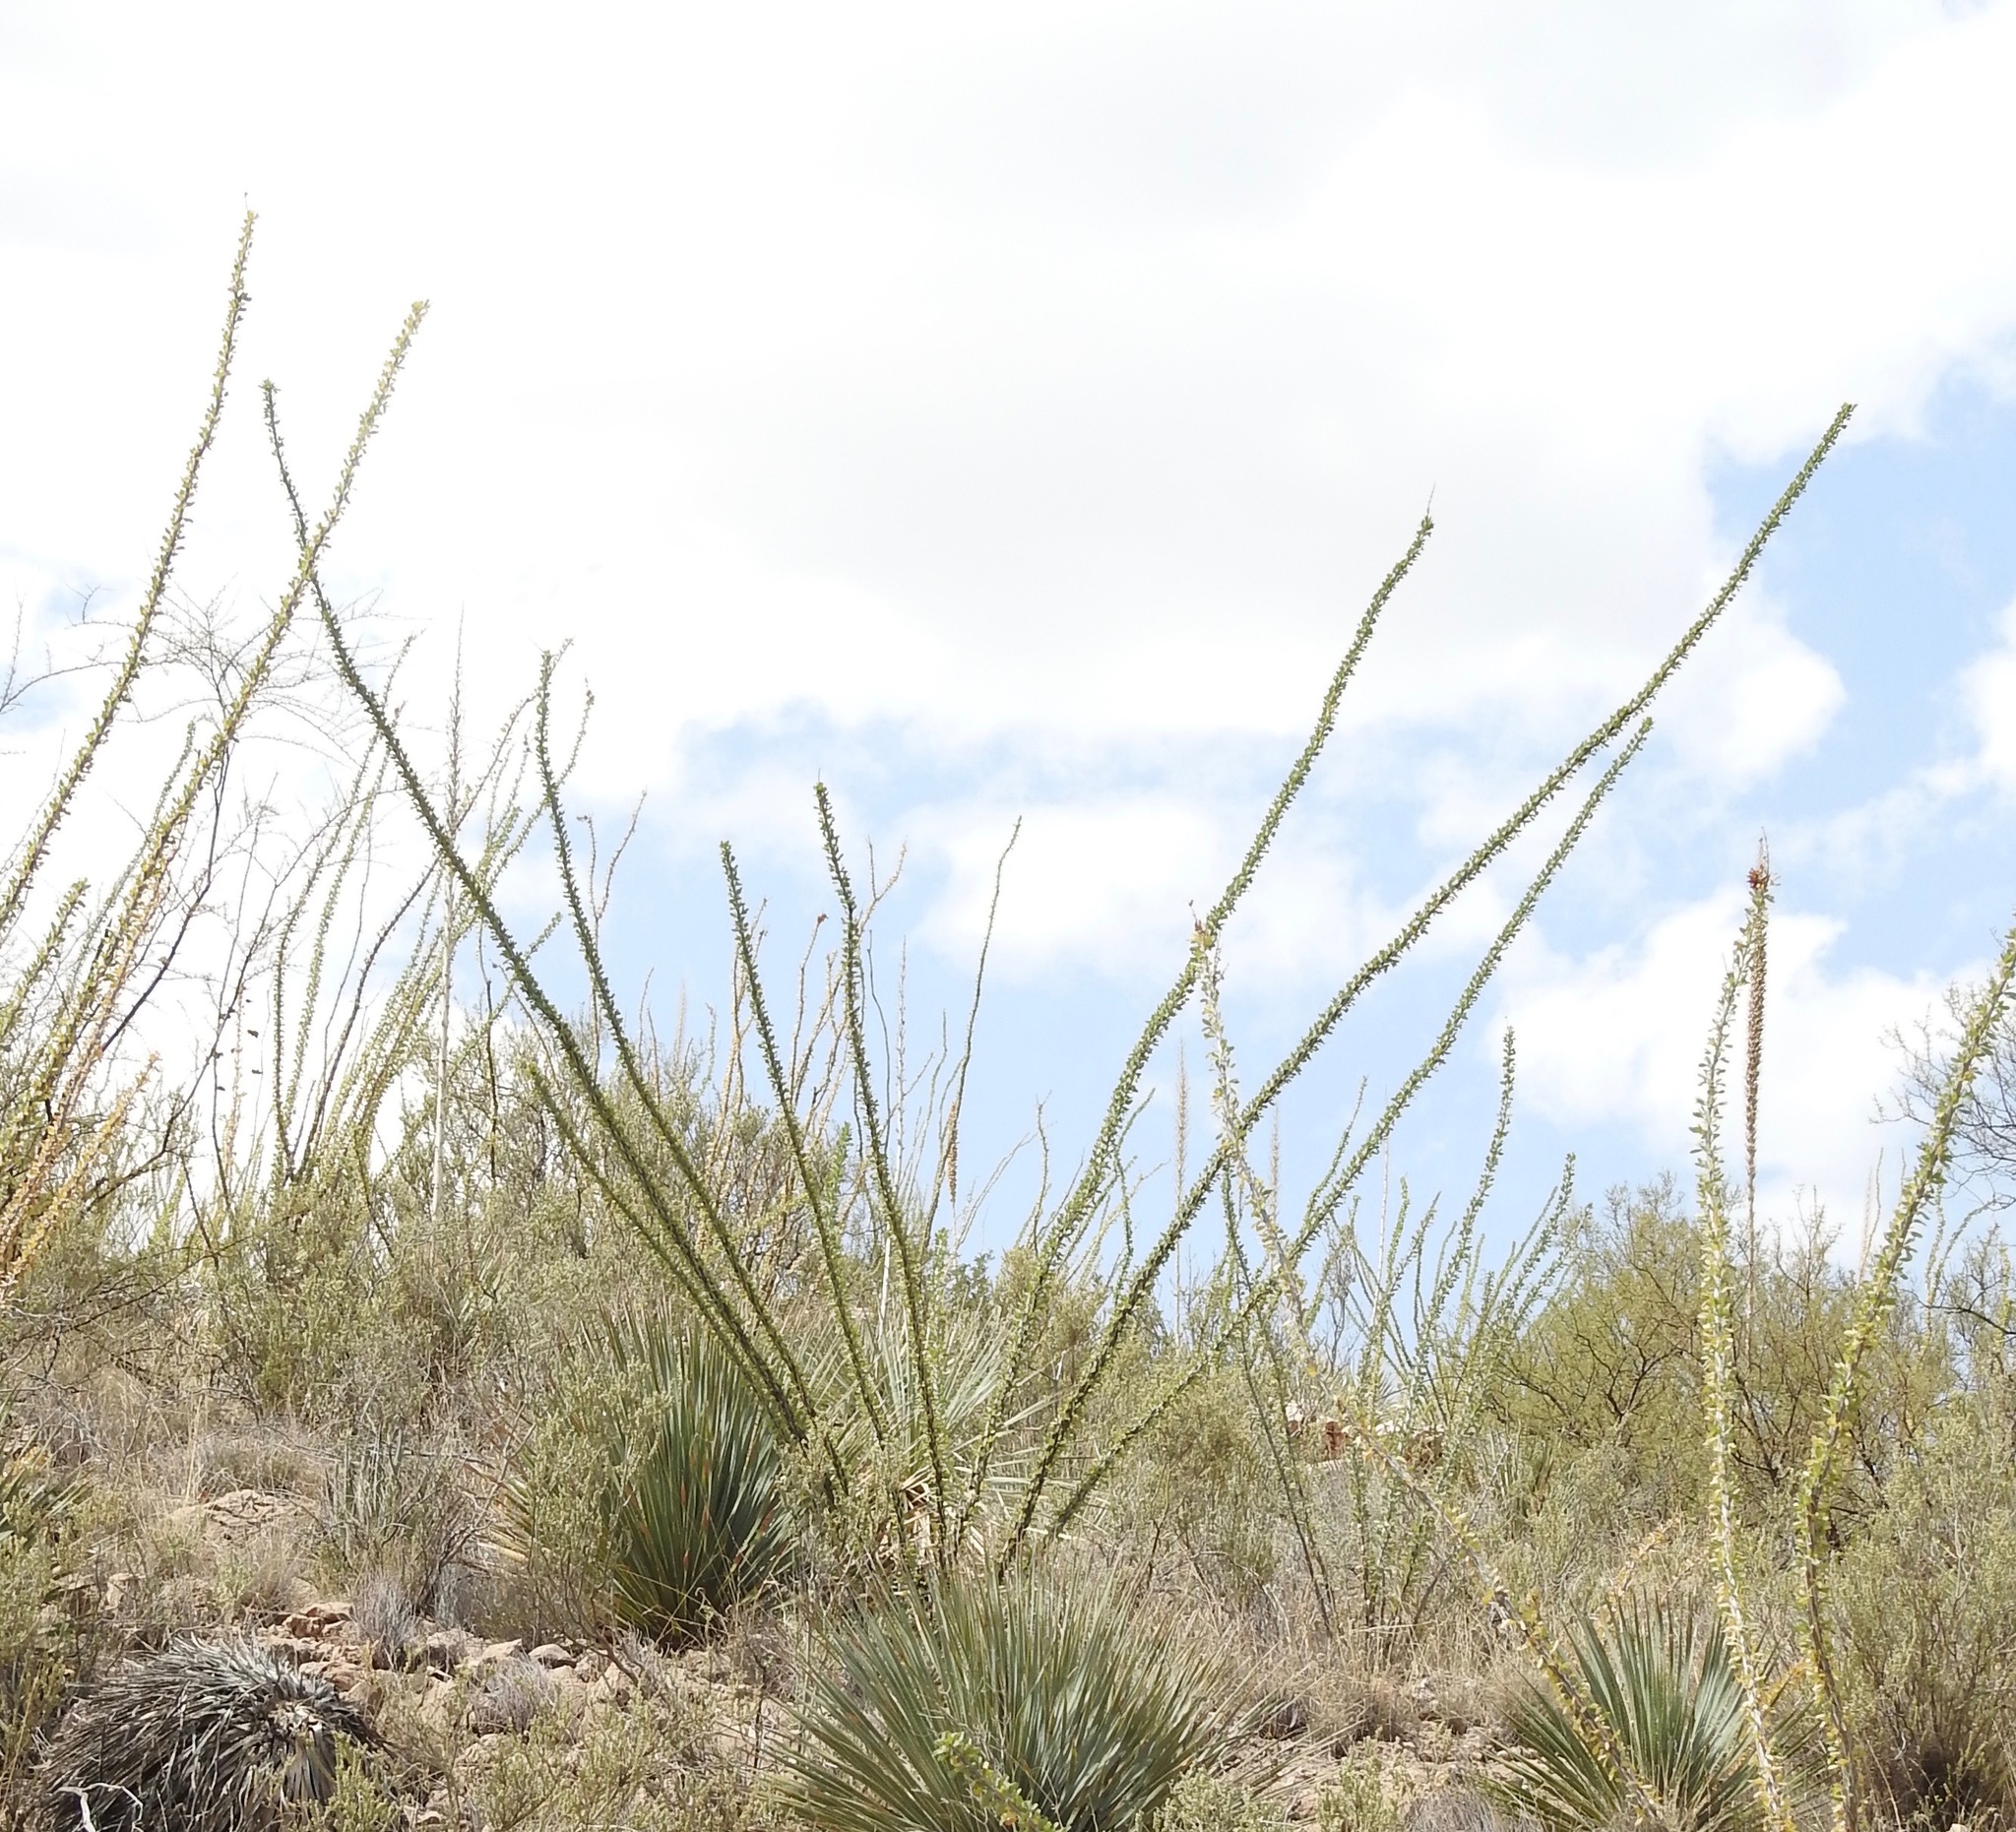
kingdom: Plantae
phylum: Tracheophyta
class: Magnoliopsida
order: Ericales
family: Fouquieriaceae
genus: Fouquieria
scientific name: Fouquieria splendens
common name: Vine-cactus
